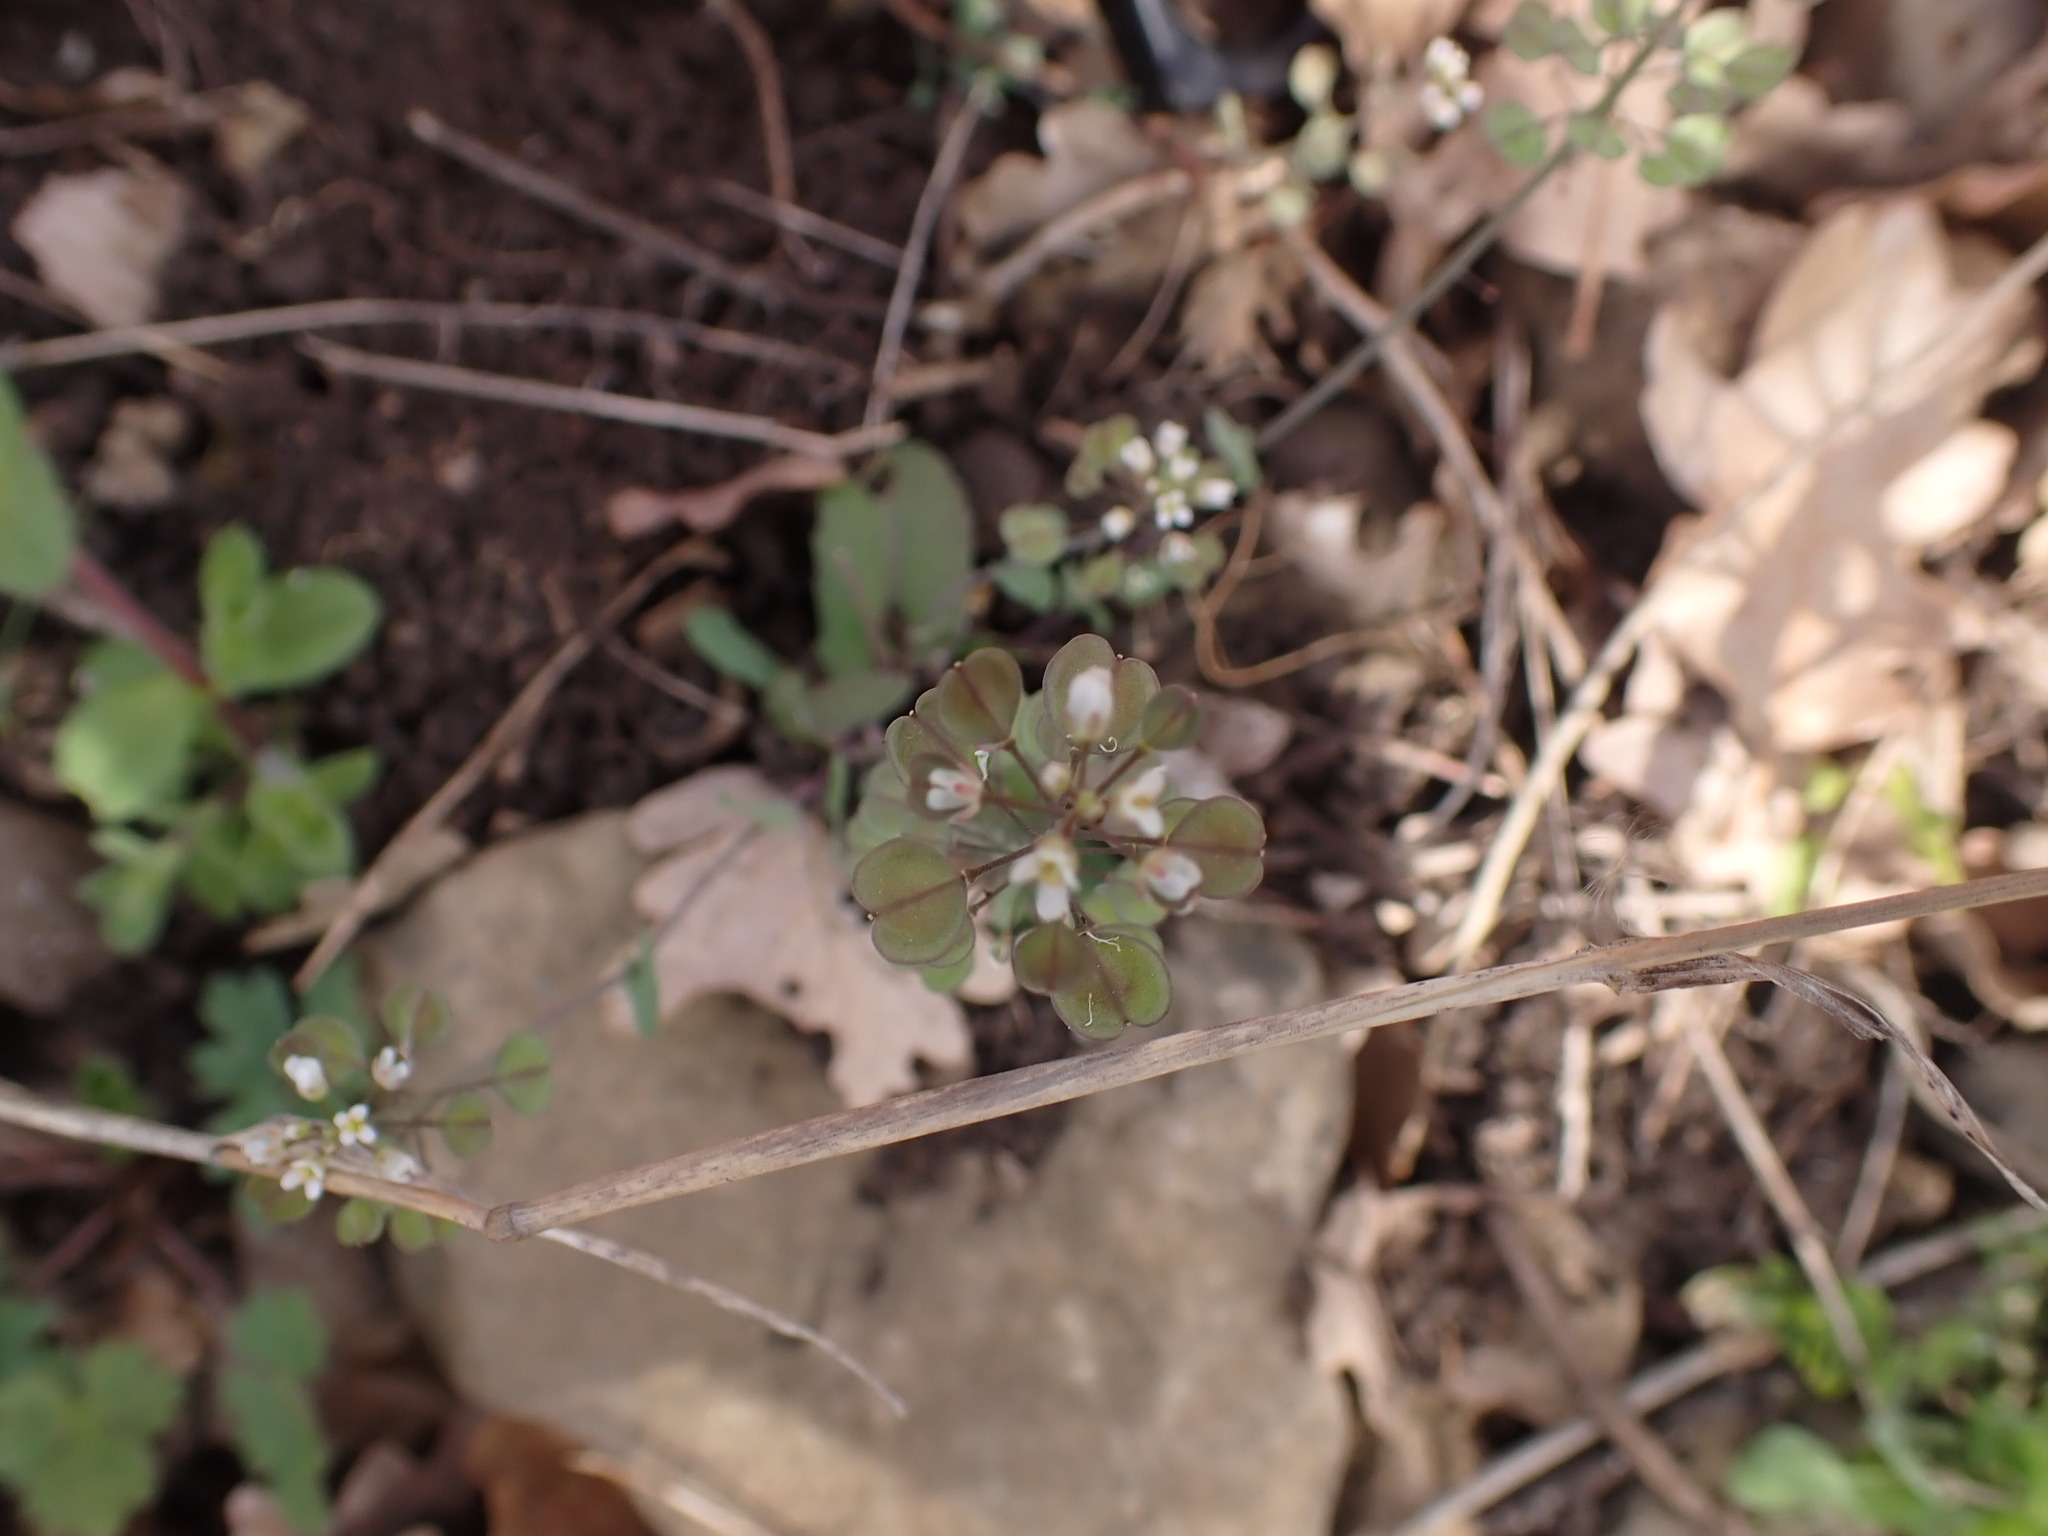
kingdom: Plantae
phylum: Tracheophyta
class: Magnoliopsida
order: Brassicales
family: Brassicaceae
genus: Noccaea
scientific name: Noccaea perfoliata
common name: Perfoliate pennycress
